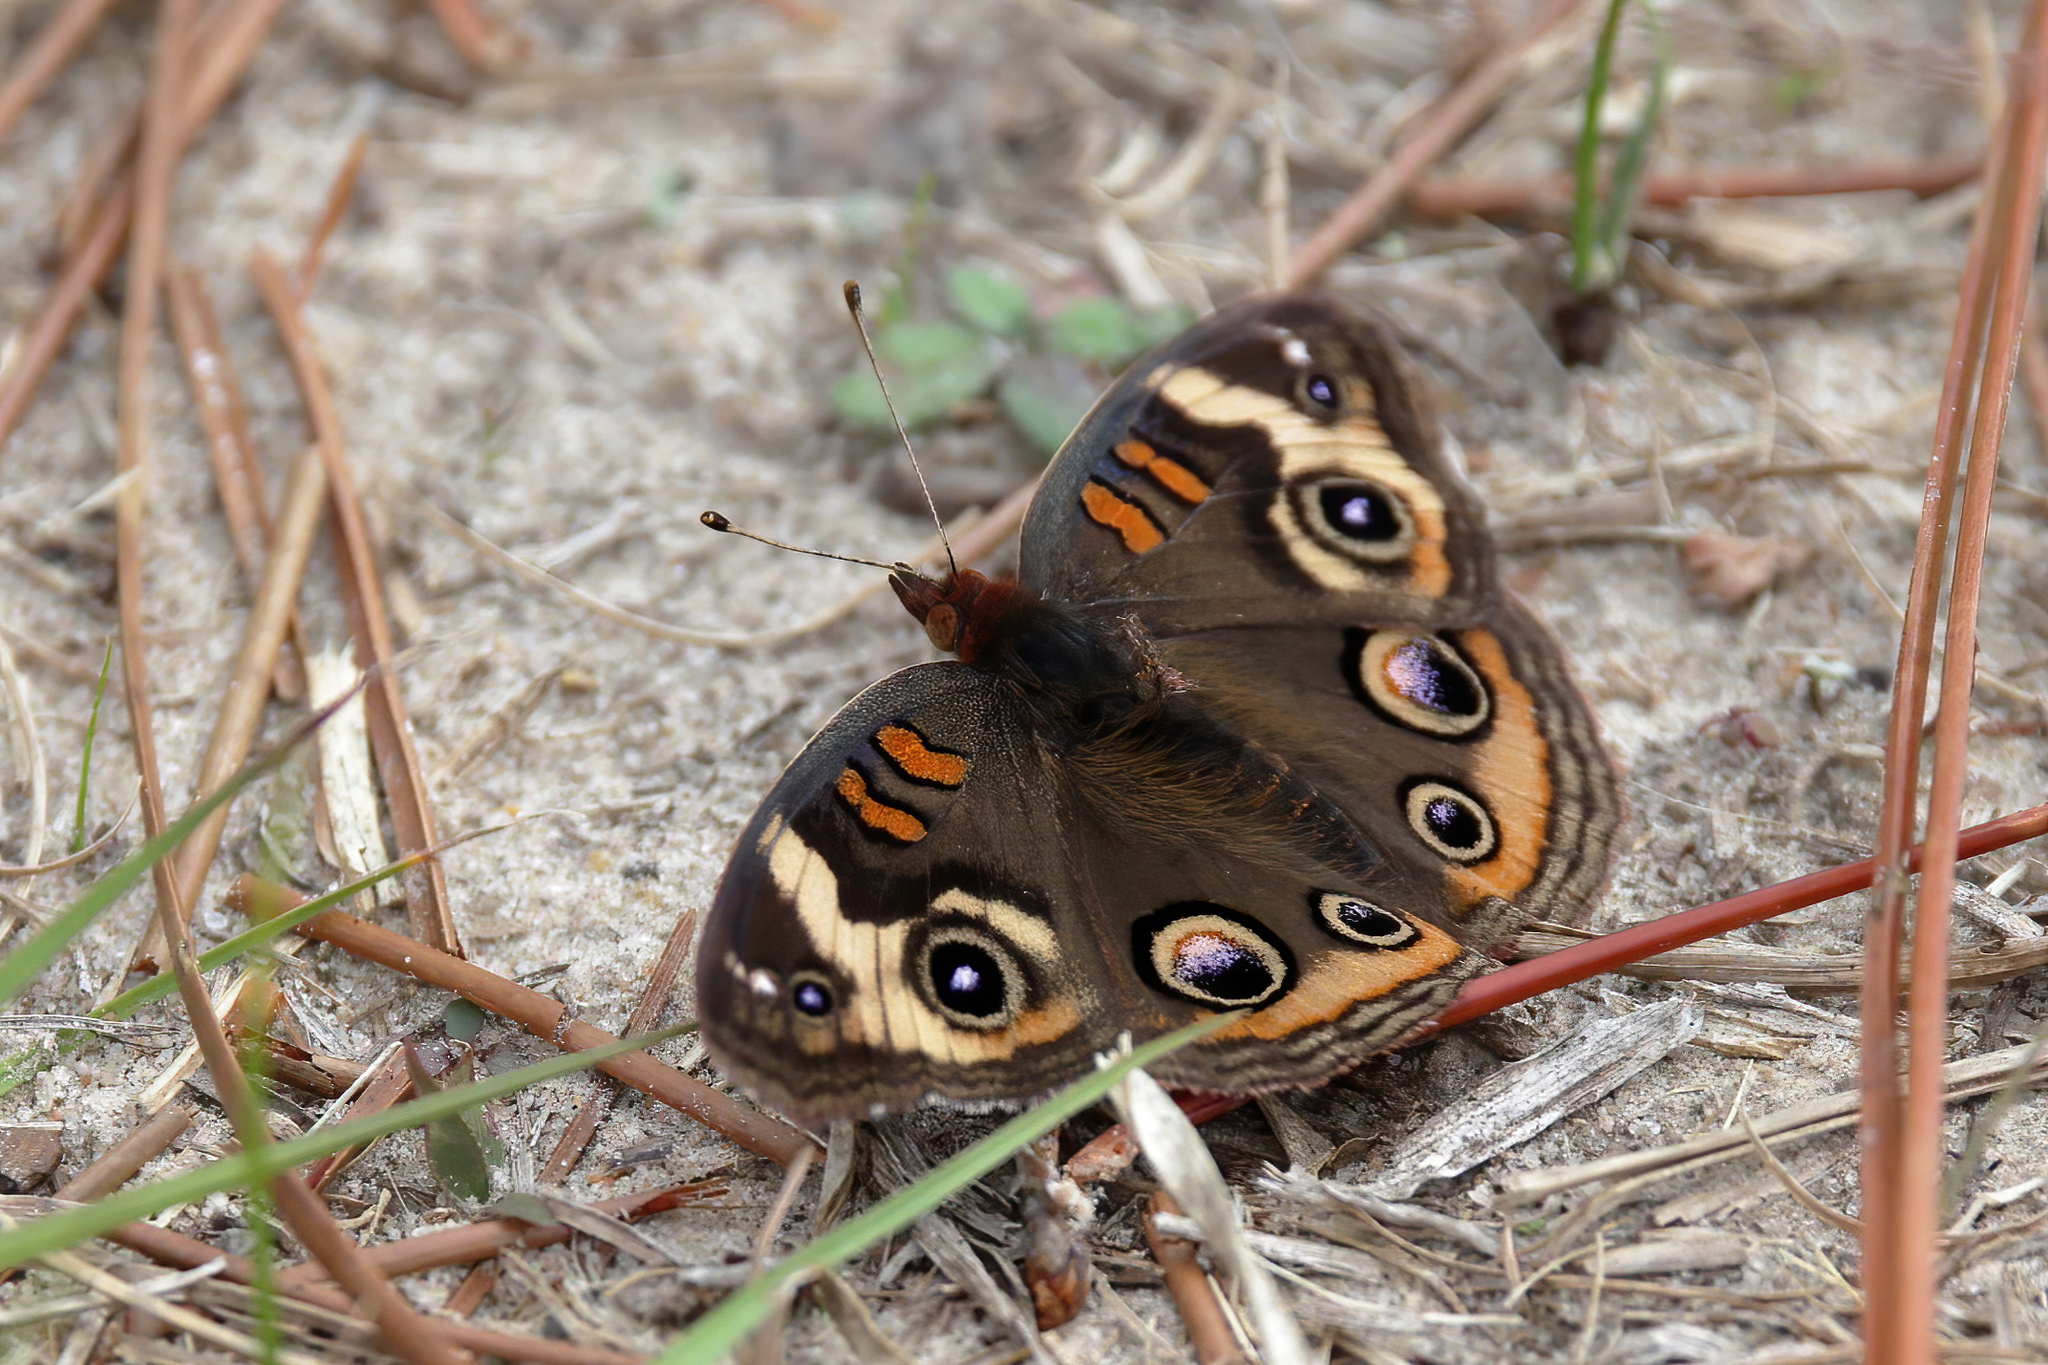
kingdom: Animalia
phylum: Arthropoda
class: Insecta
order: Lepidoptera
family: Nymphalidae
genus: Junonia
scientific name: Junonia coenia
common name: Common buckeye
